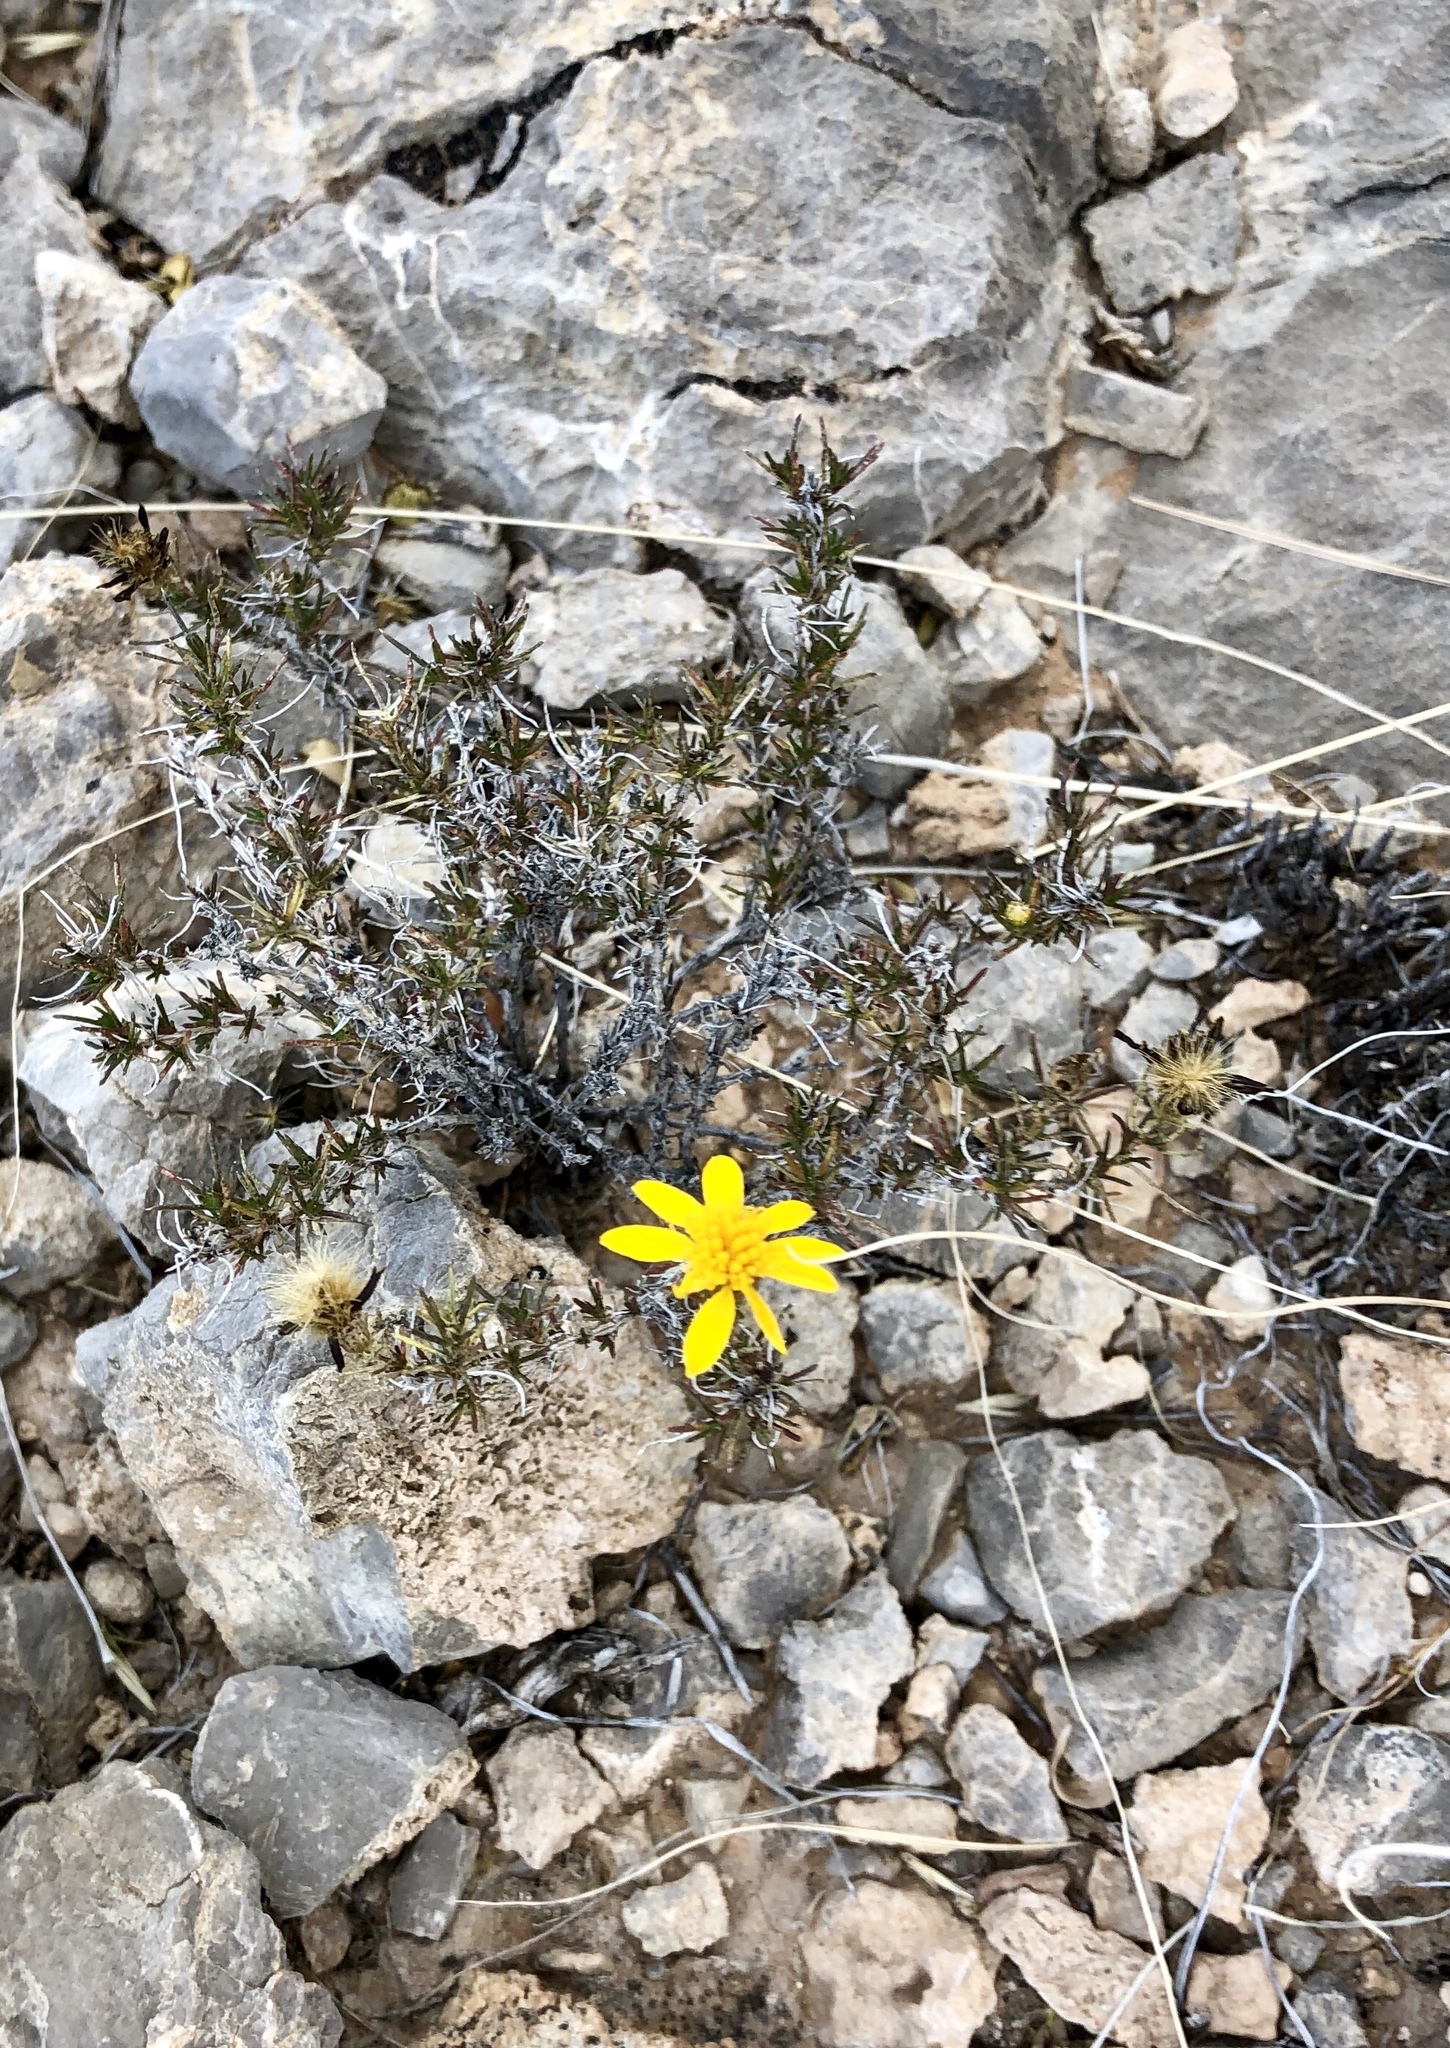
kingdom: Plantae
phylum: Tracheophyta
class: Magnoliopsida
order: Asterales
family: Asteraceae
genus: Thymophylla
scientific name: Thymophylla acerosa
